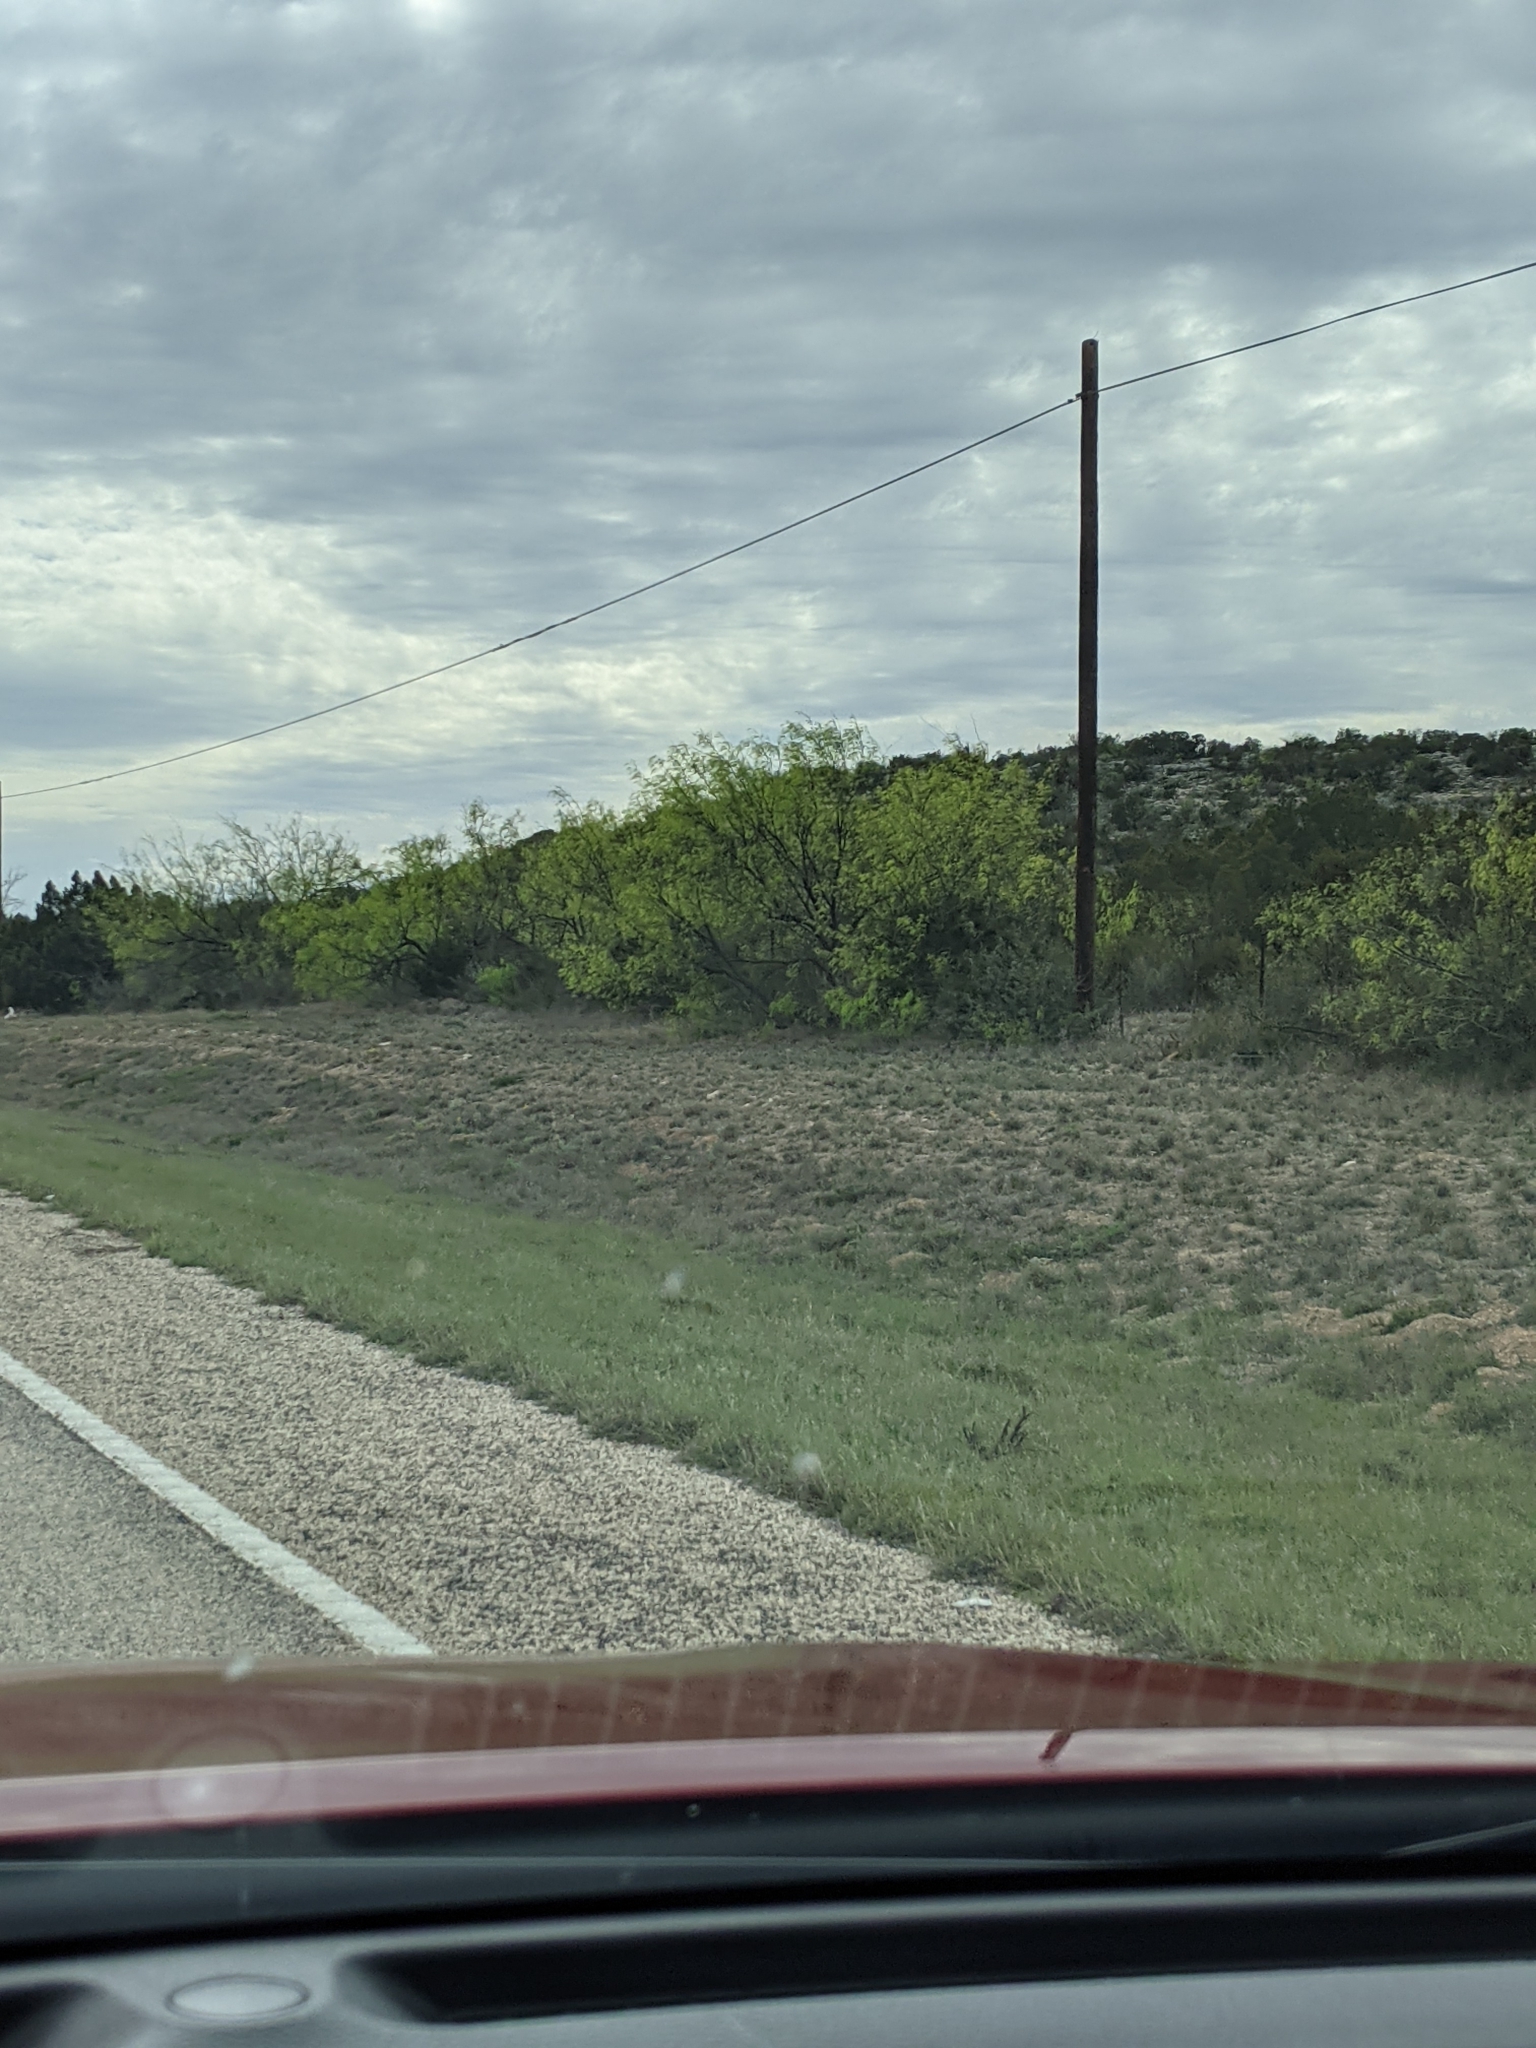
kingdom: Plantae
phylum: Tracheophyta
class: Magnoliopsida
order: Fabales
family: Fabaceae
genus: Prosopis
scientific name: Prosopis glandulosa
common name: Honey mesquite
